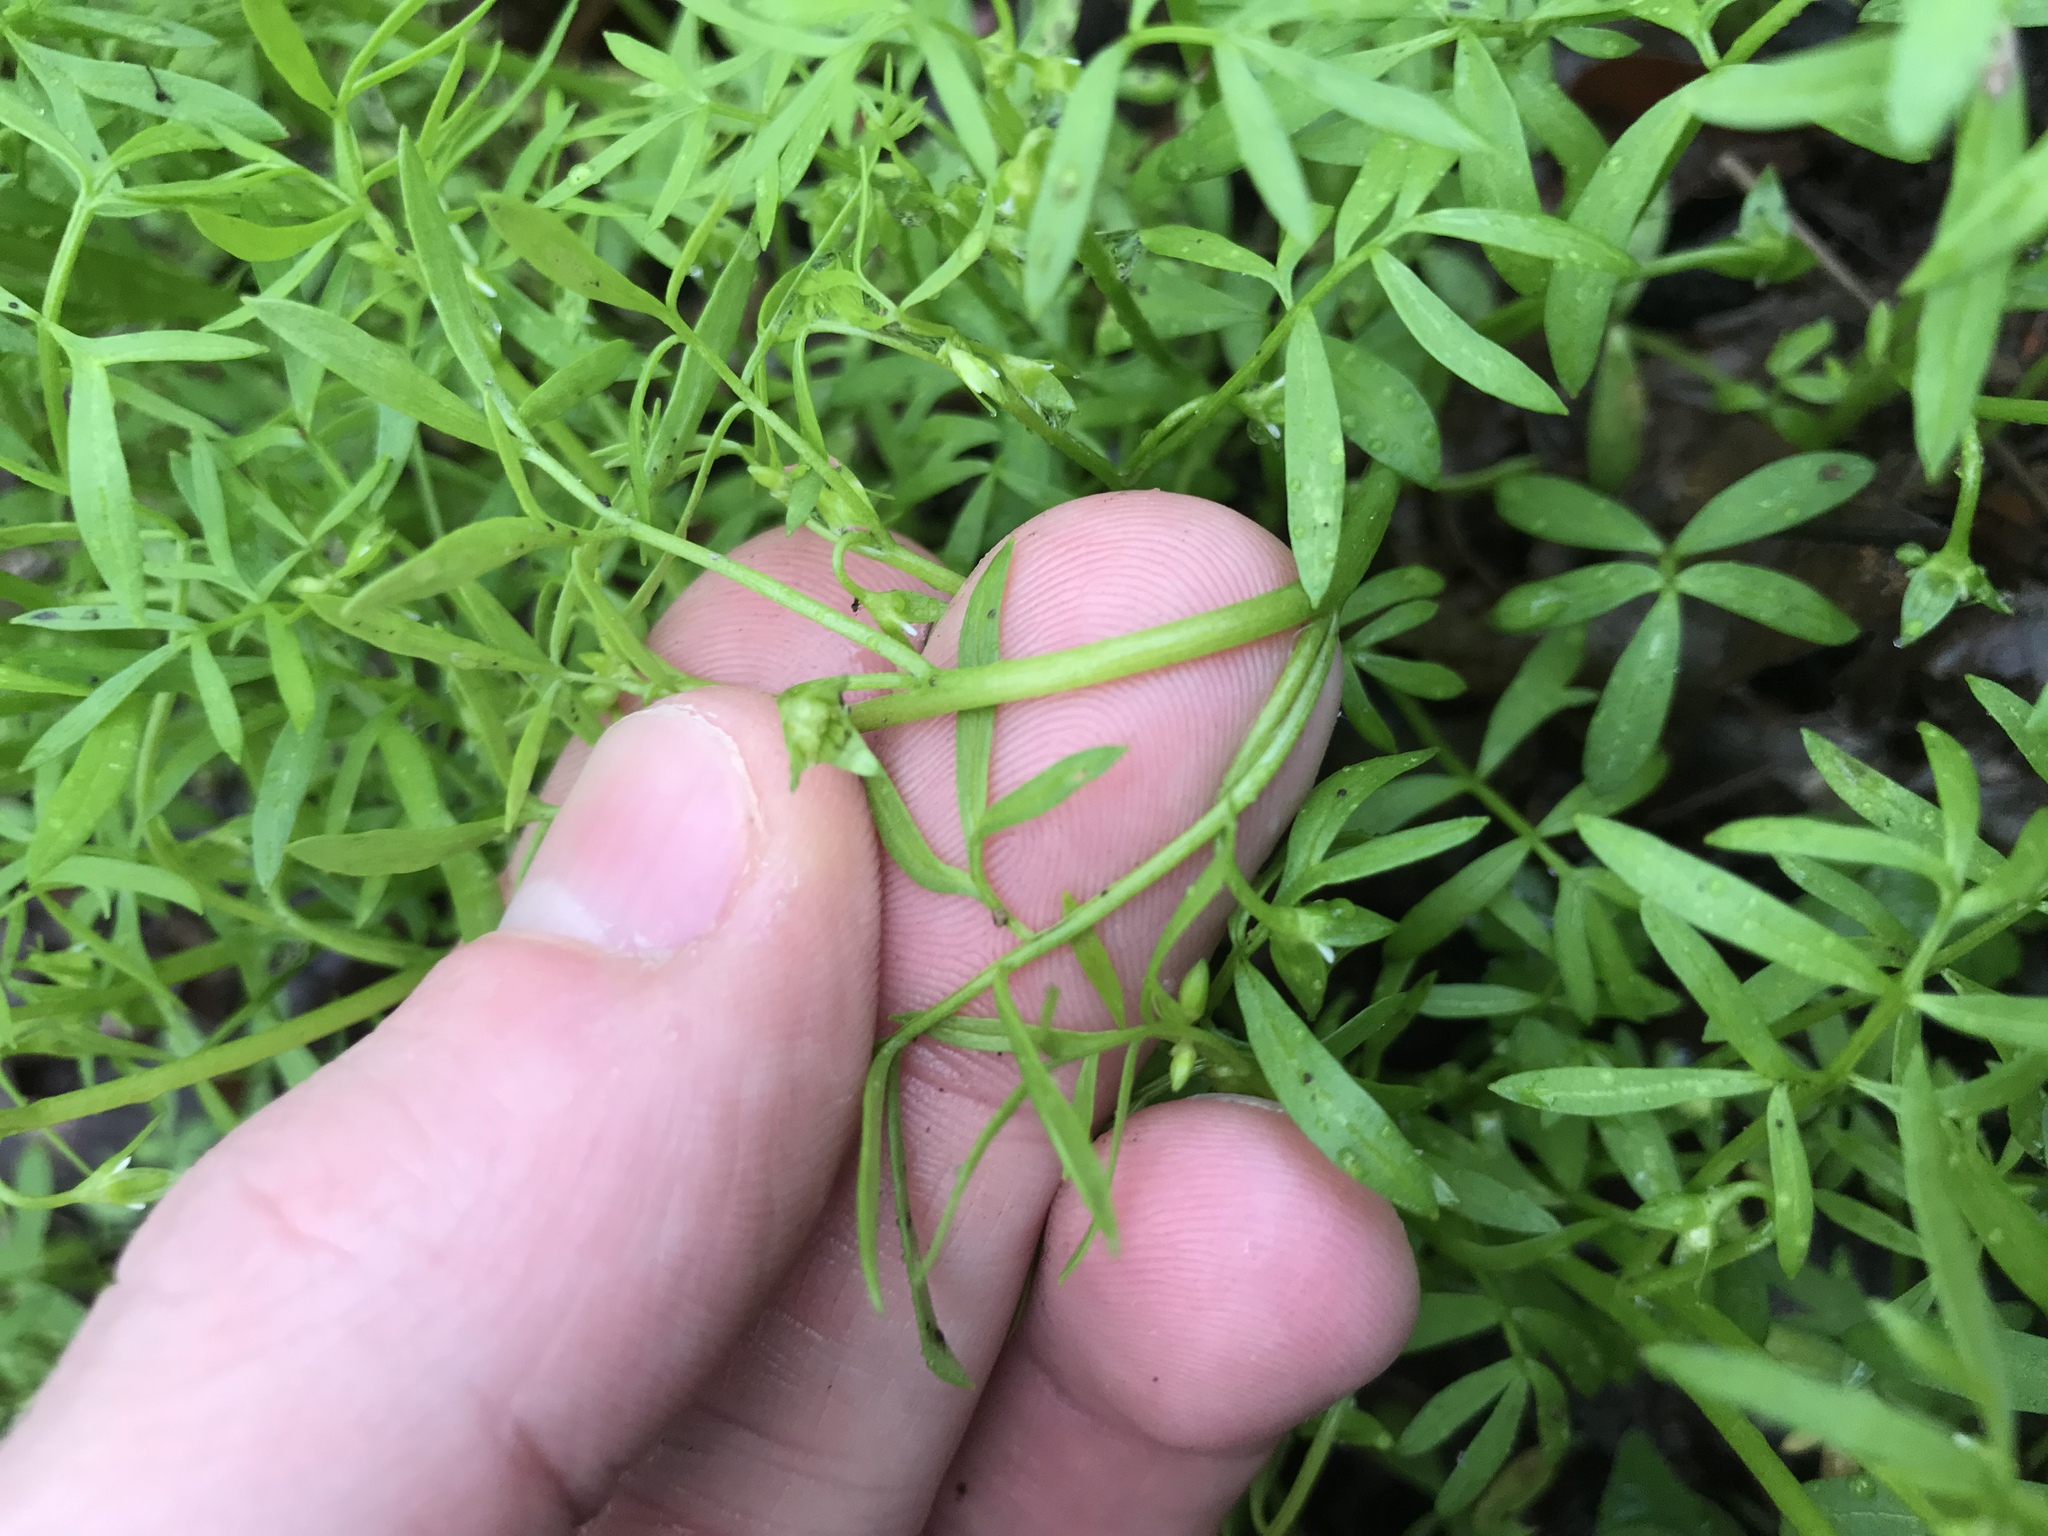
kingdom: Plantae
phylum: Tracheophyta
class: Magnoliopsida
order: Brassicales
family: Limnanthaceae
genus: Floerkea
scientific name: Floerkea proserpinacoides
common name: False mermaid
